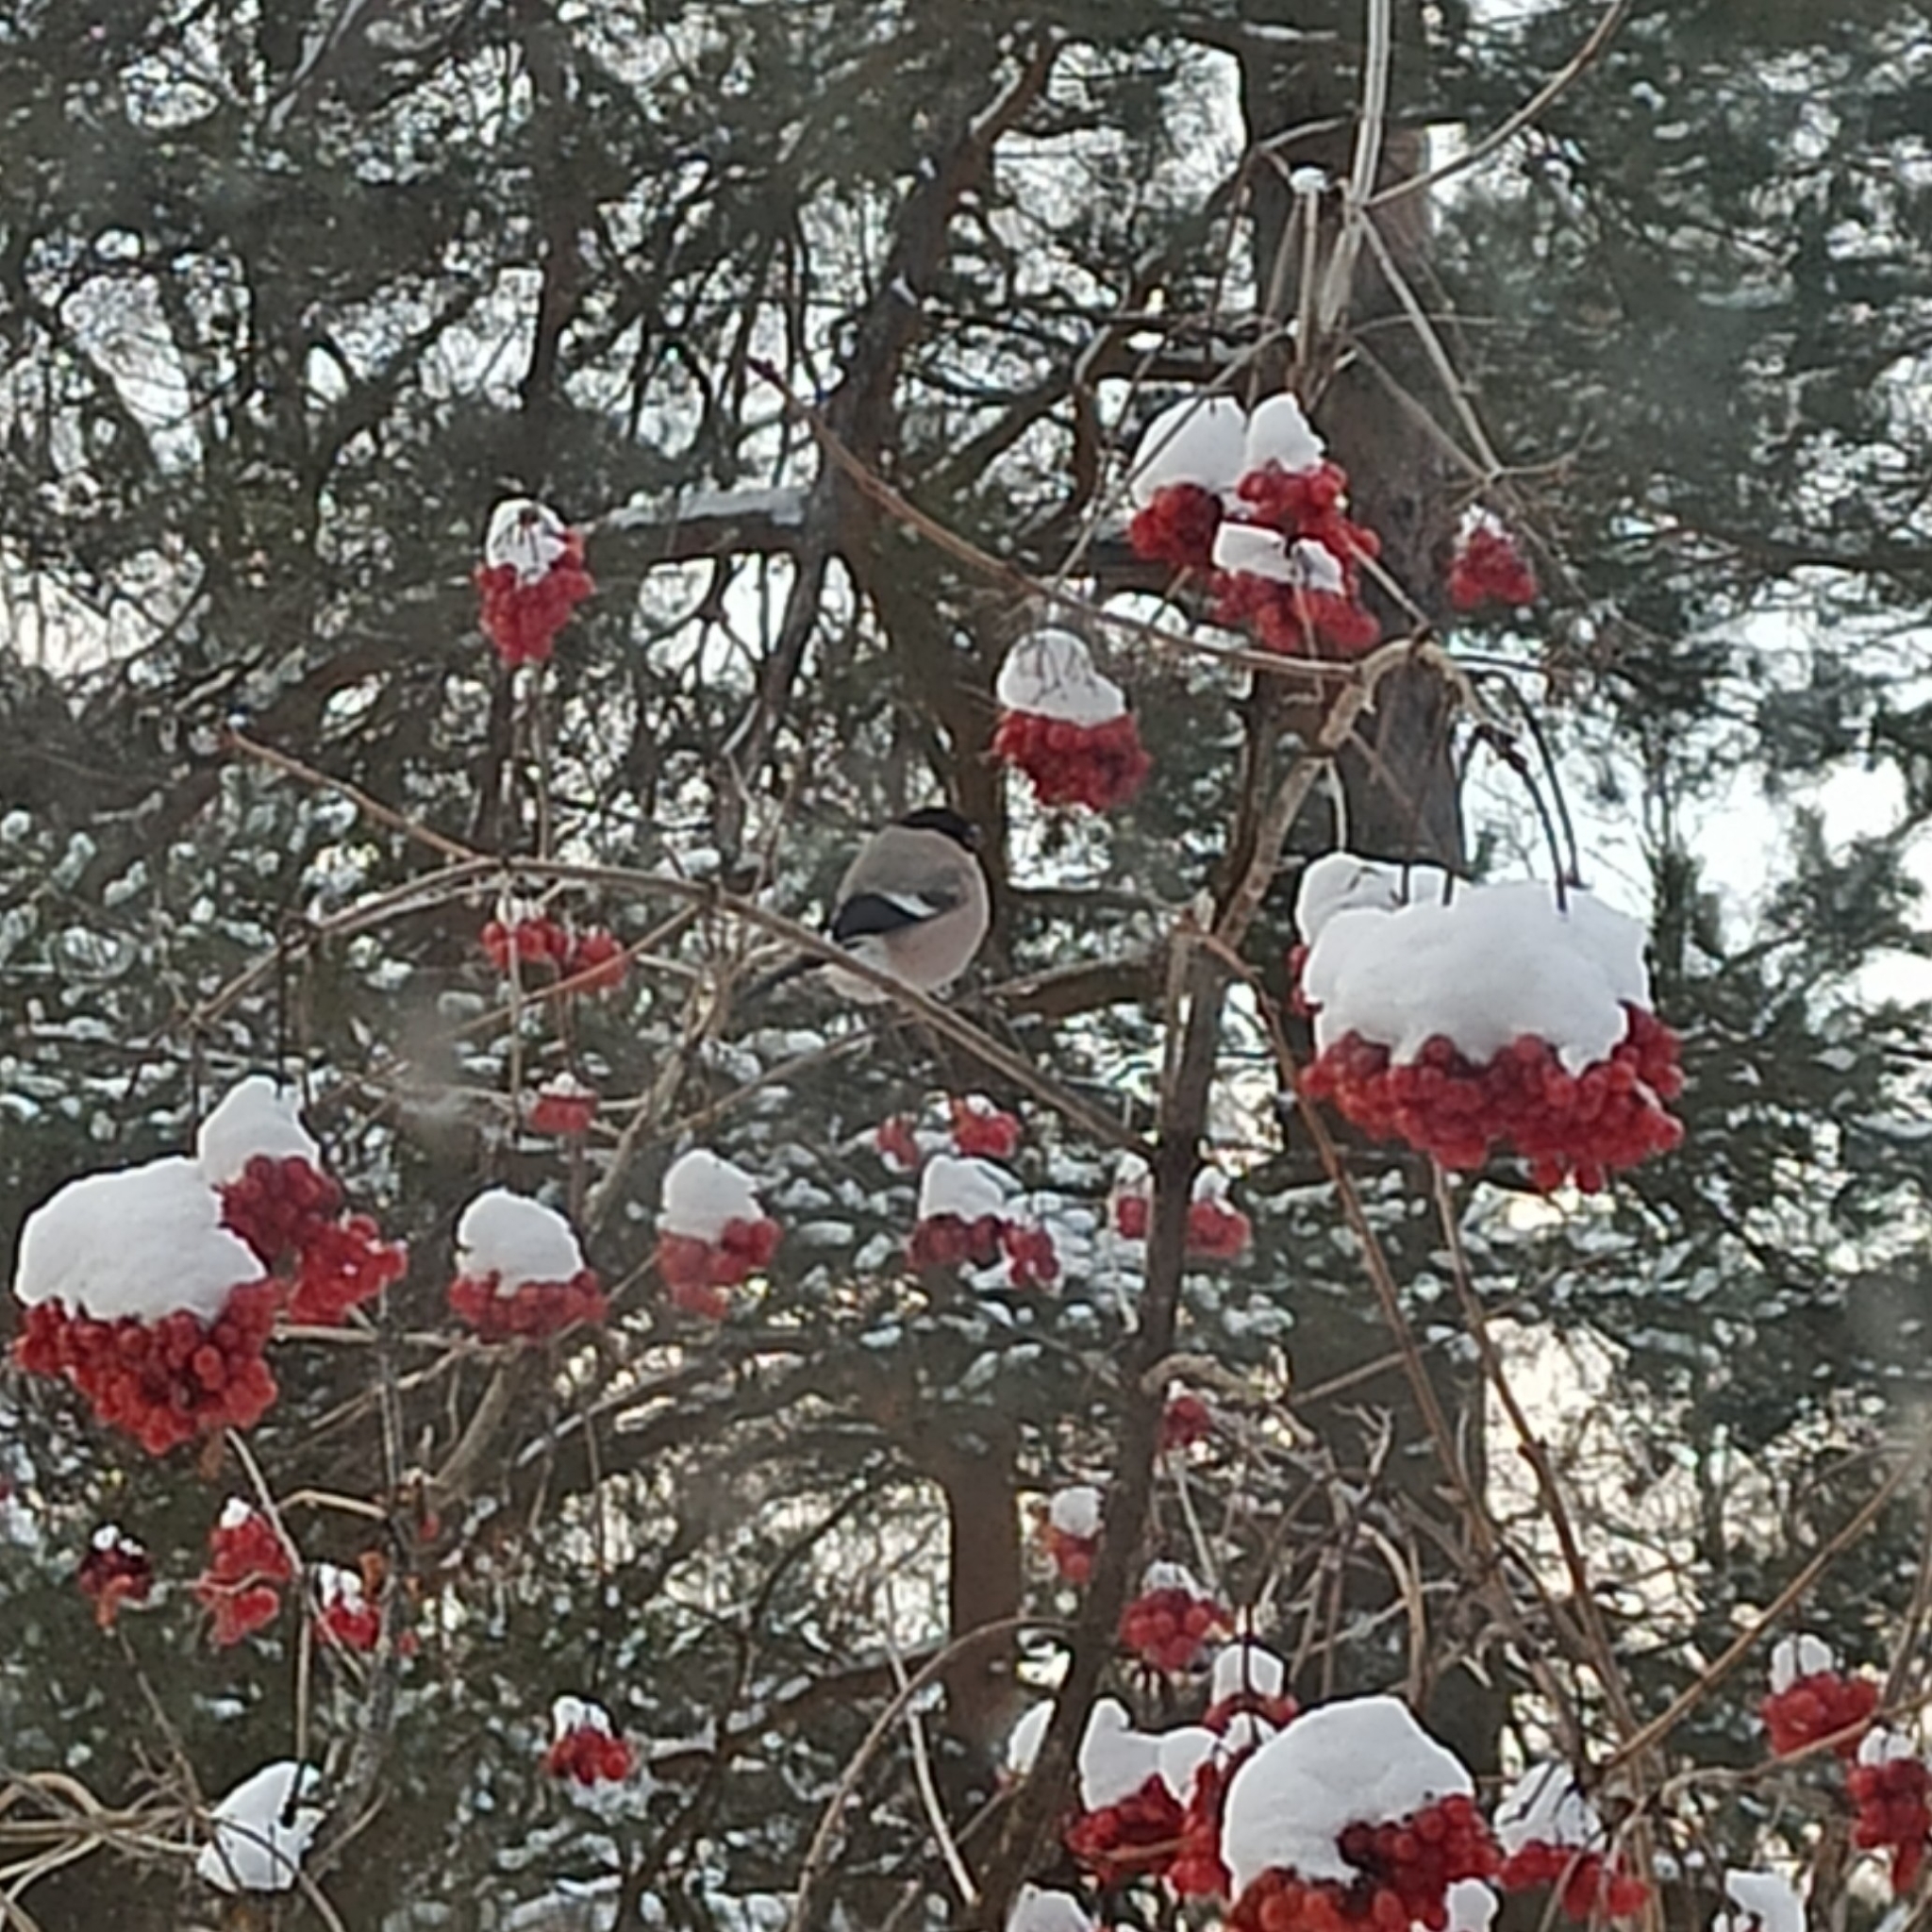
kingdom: Animalia
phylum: Chordata
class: Aves
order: Passeriformes
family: Fringillidae
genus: Pyrrhula
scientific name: Pyrrhula pyrrhula
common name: Eurasian bullfinch
